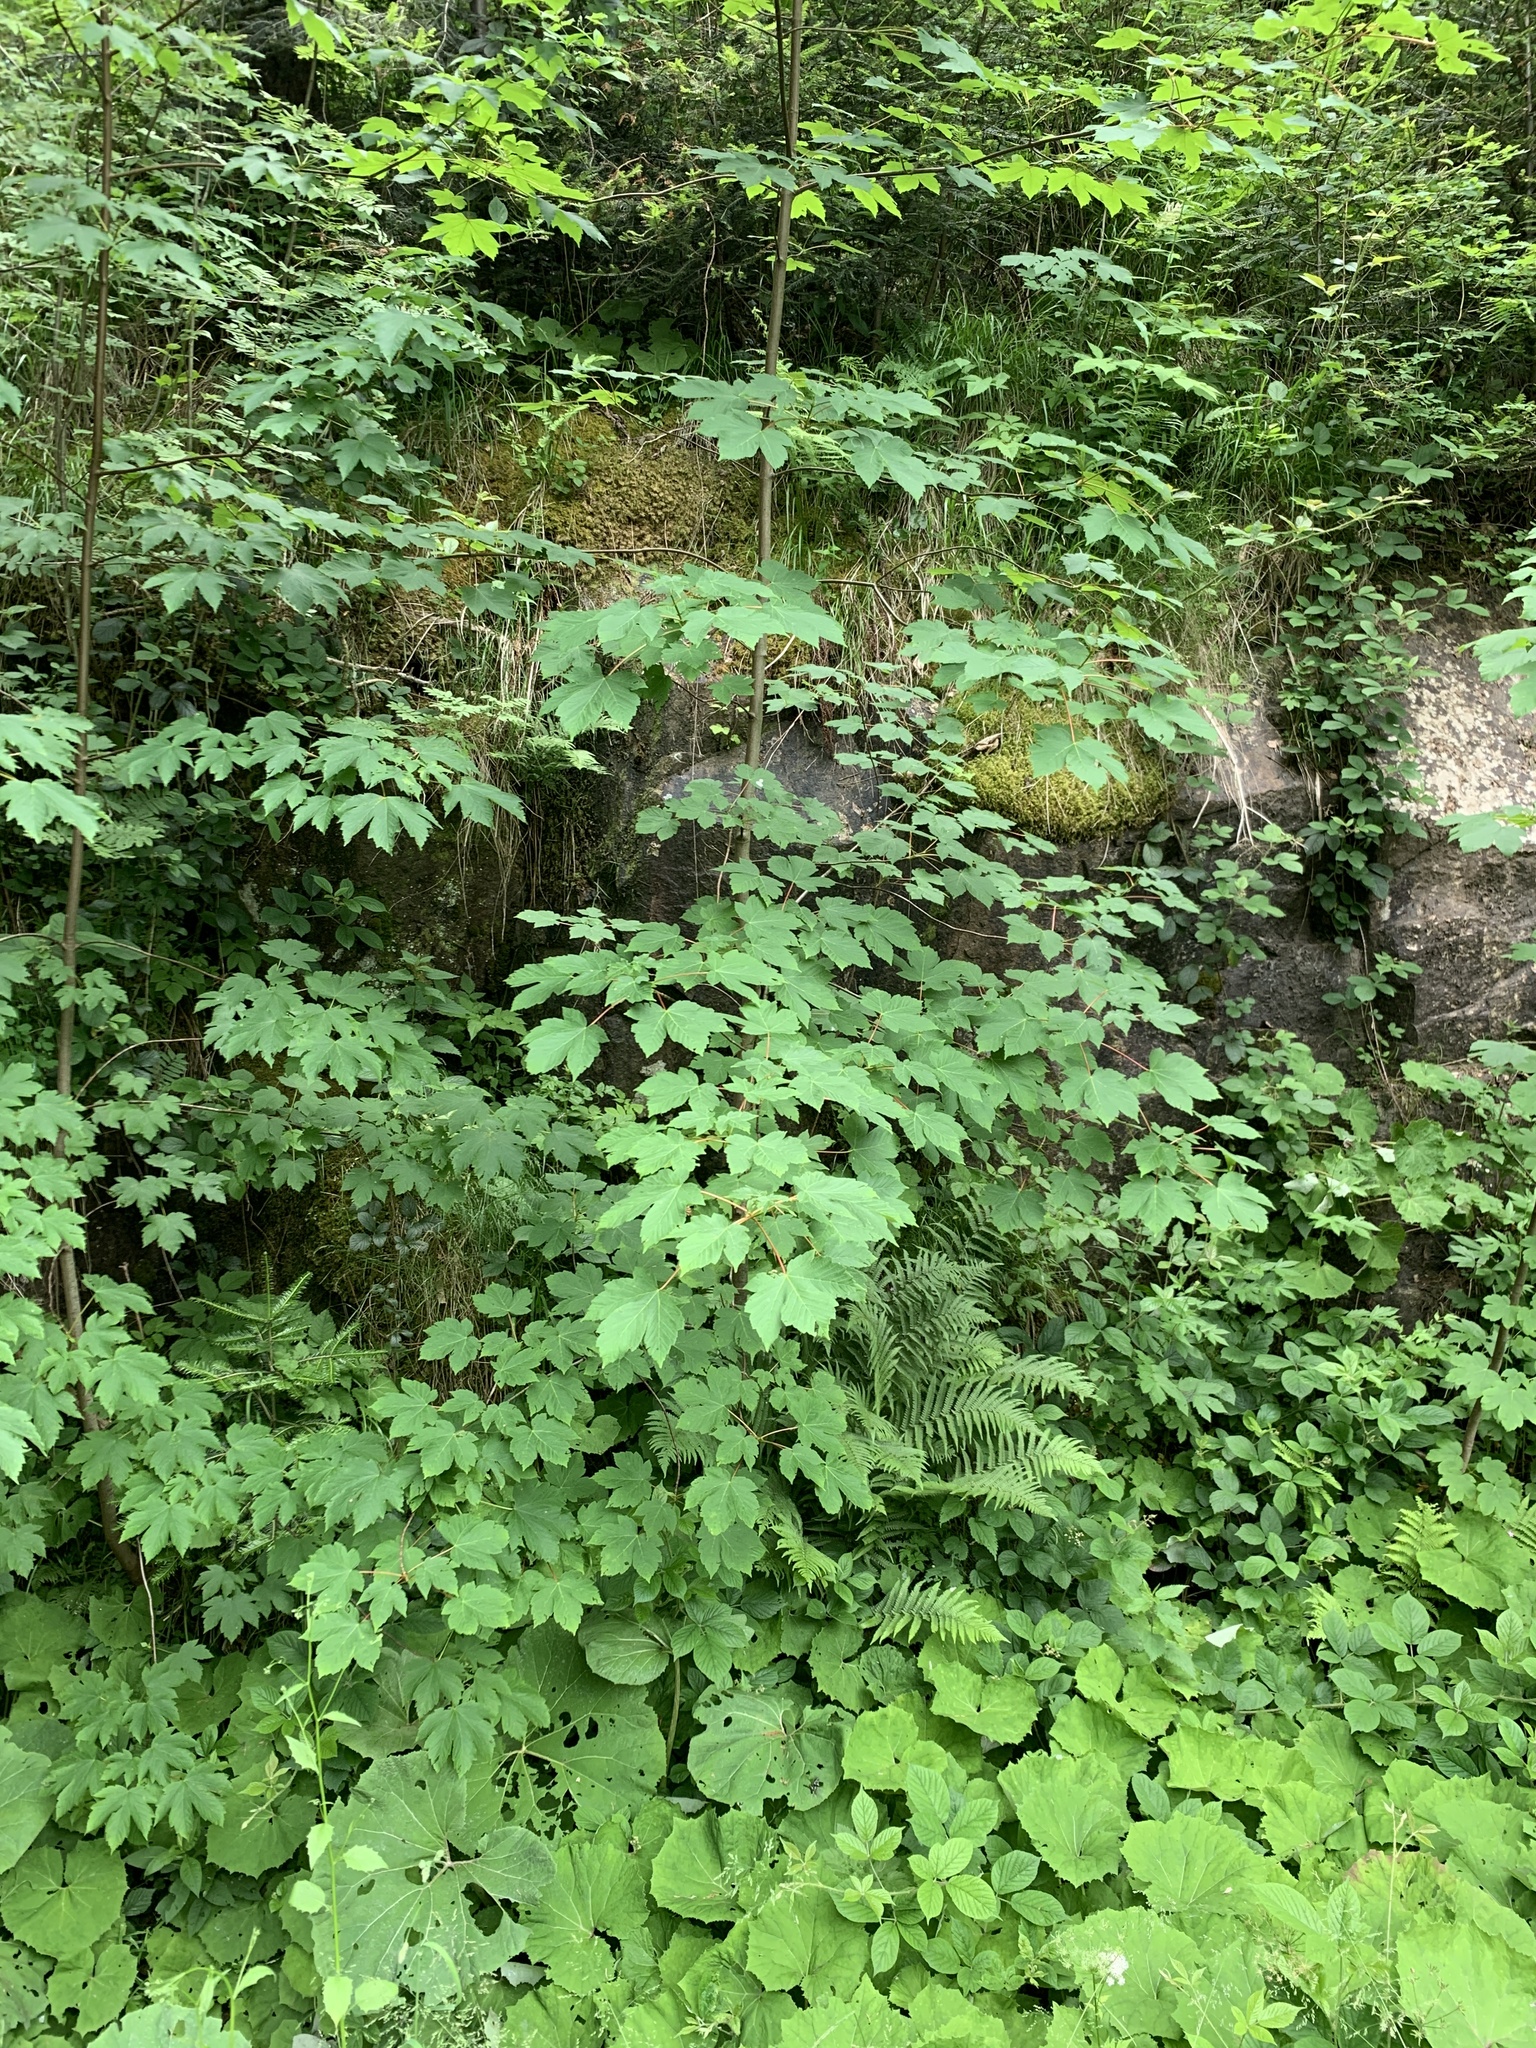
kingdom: Plantae
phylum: Tracheophyta
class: Magnoliopsida
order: Sapindales
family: Sapindaceae
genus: Acer
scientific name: Acer pseudoplatanus
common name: Sycamore
